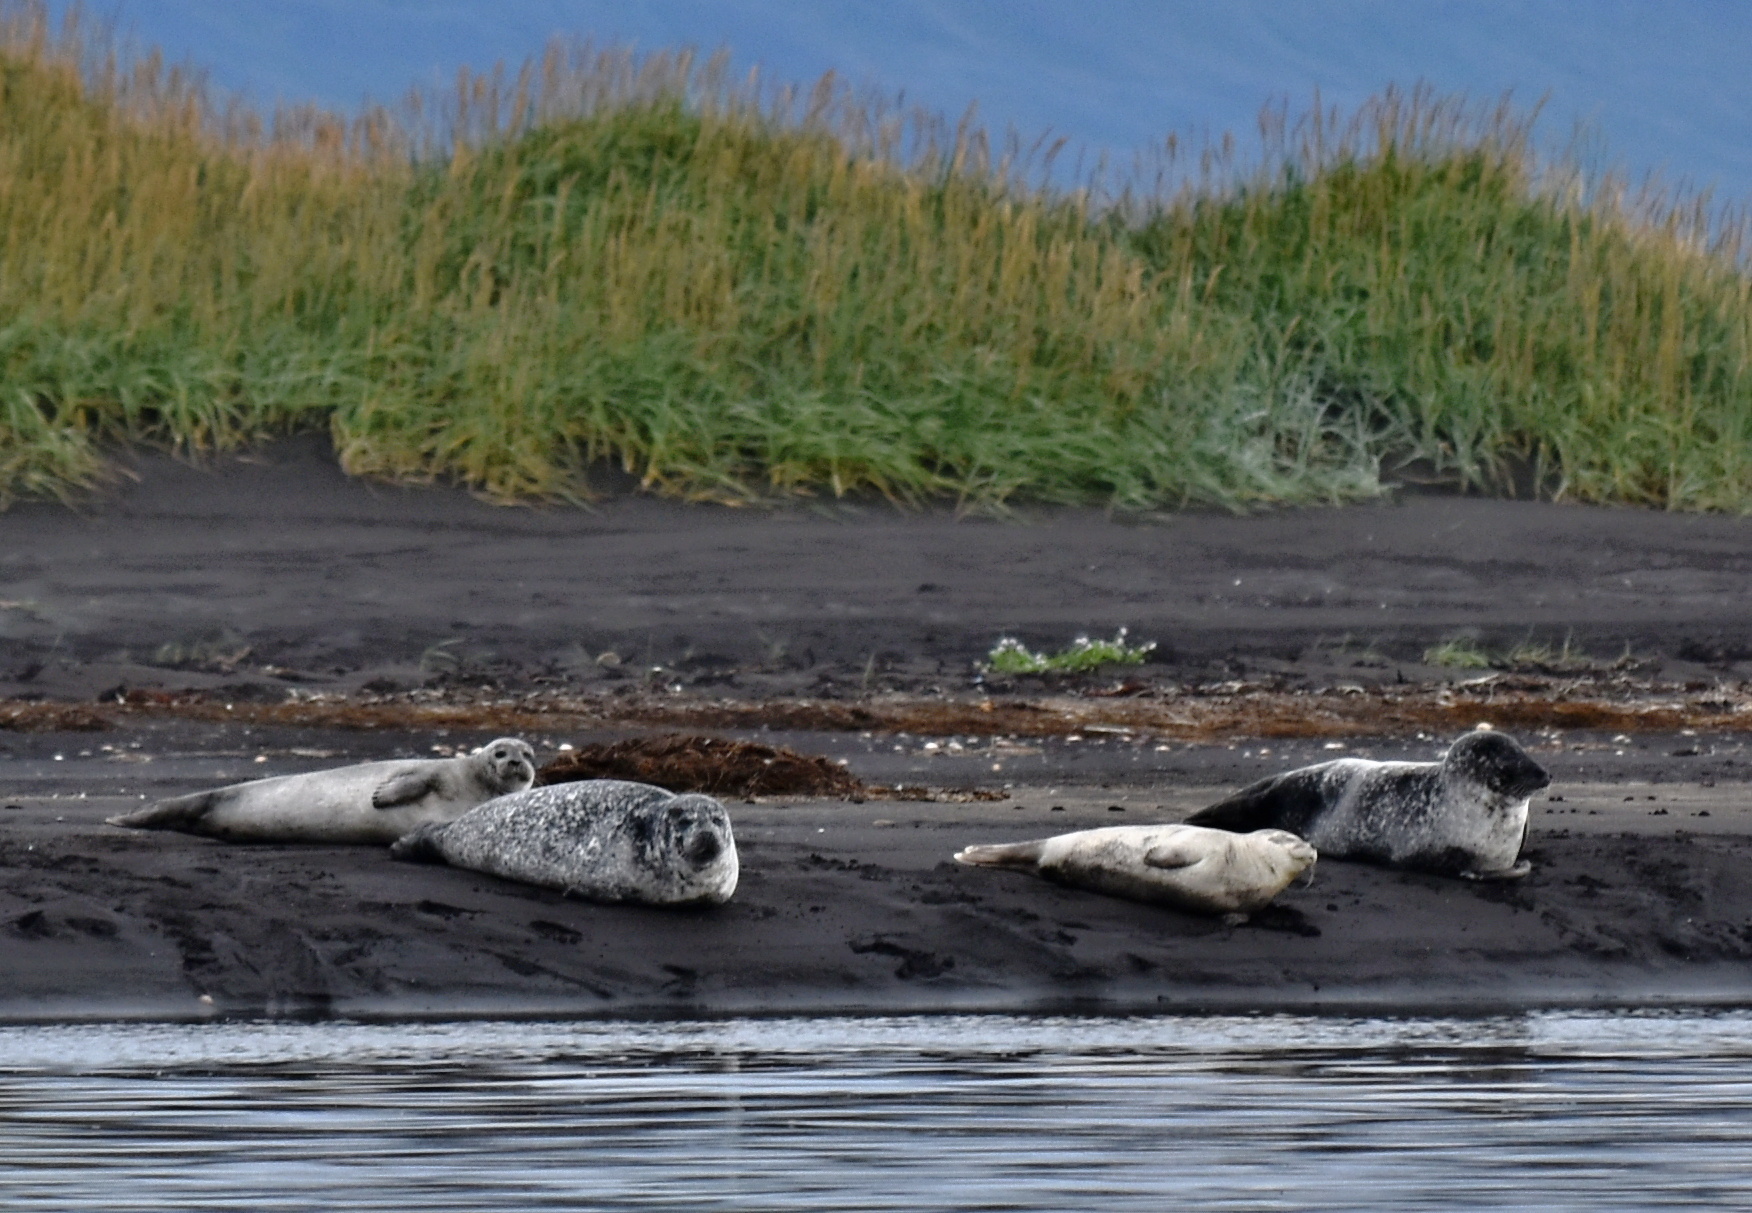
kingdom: Animalia
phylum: Chordata
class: Mammalia
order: Carnivora
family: Phocidae
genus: Phoca
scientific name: Phoca vitulina
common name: Harbor seal
